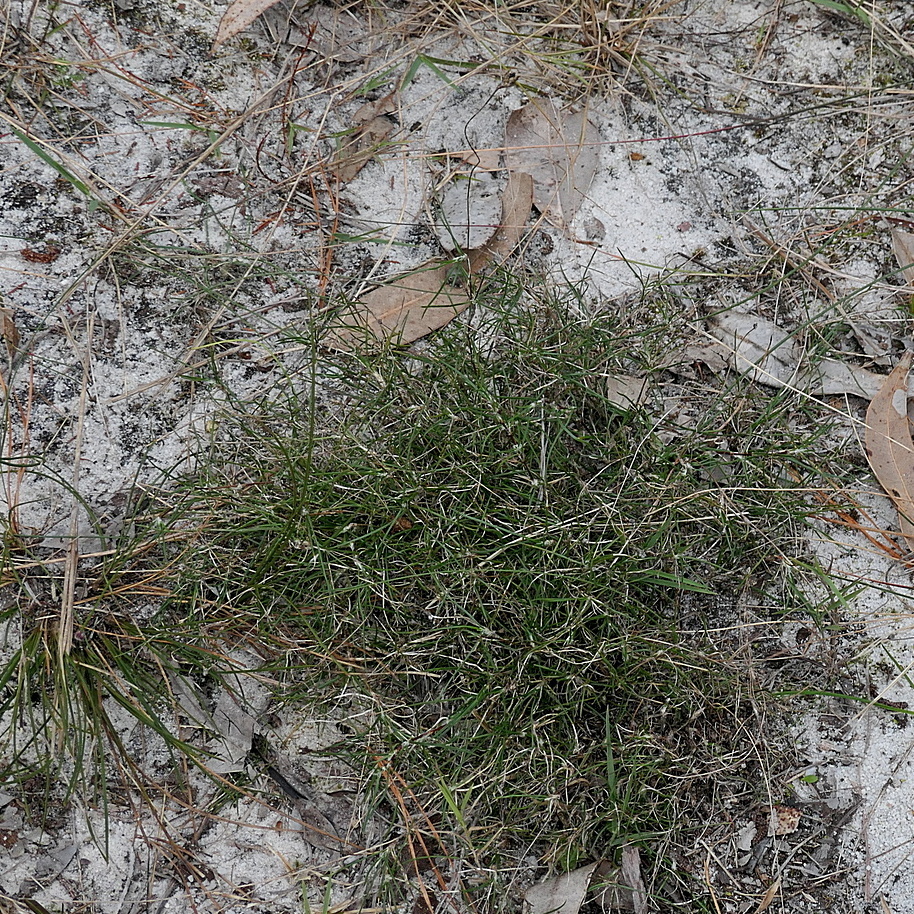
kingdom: Plantae
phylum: Tracheophyta
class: Liliopsida
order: Asparagales
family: Asparagaceae
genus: Laxmannia
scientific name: Laxmannia gracilis
